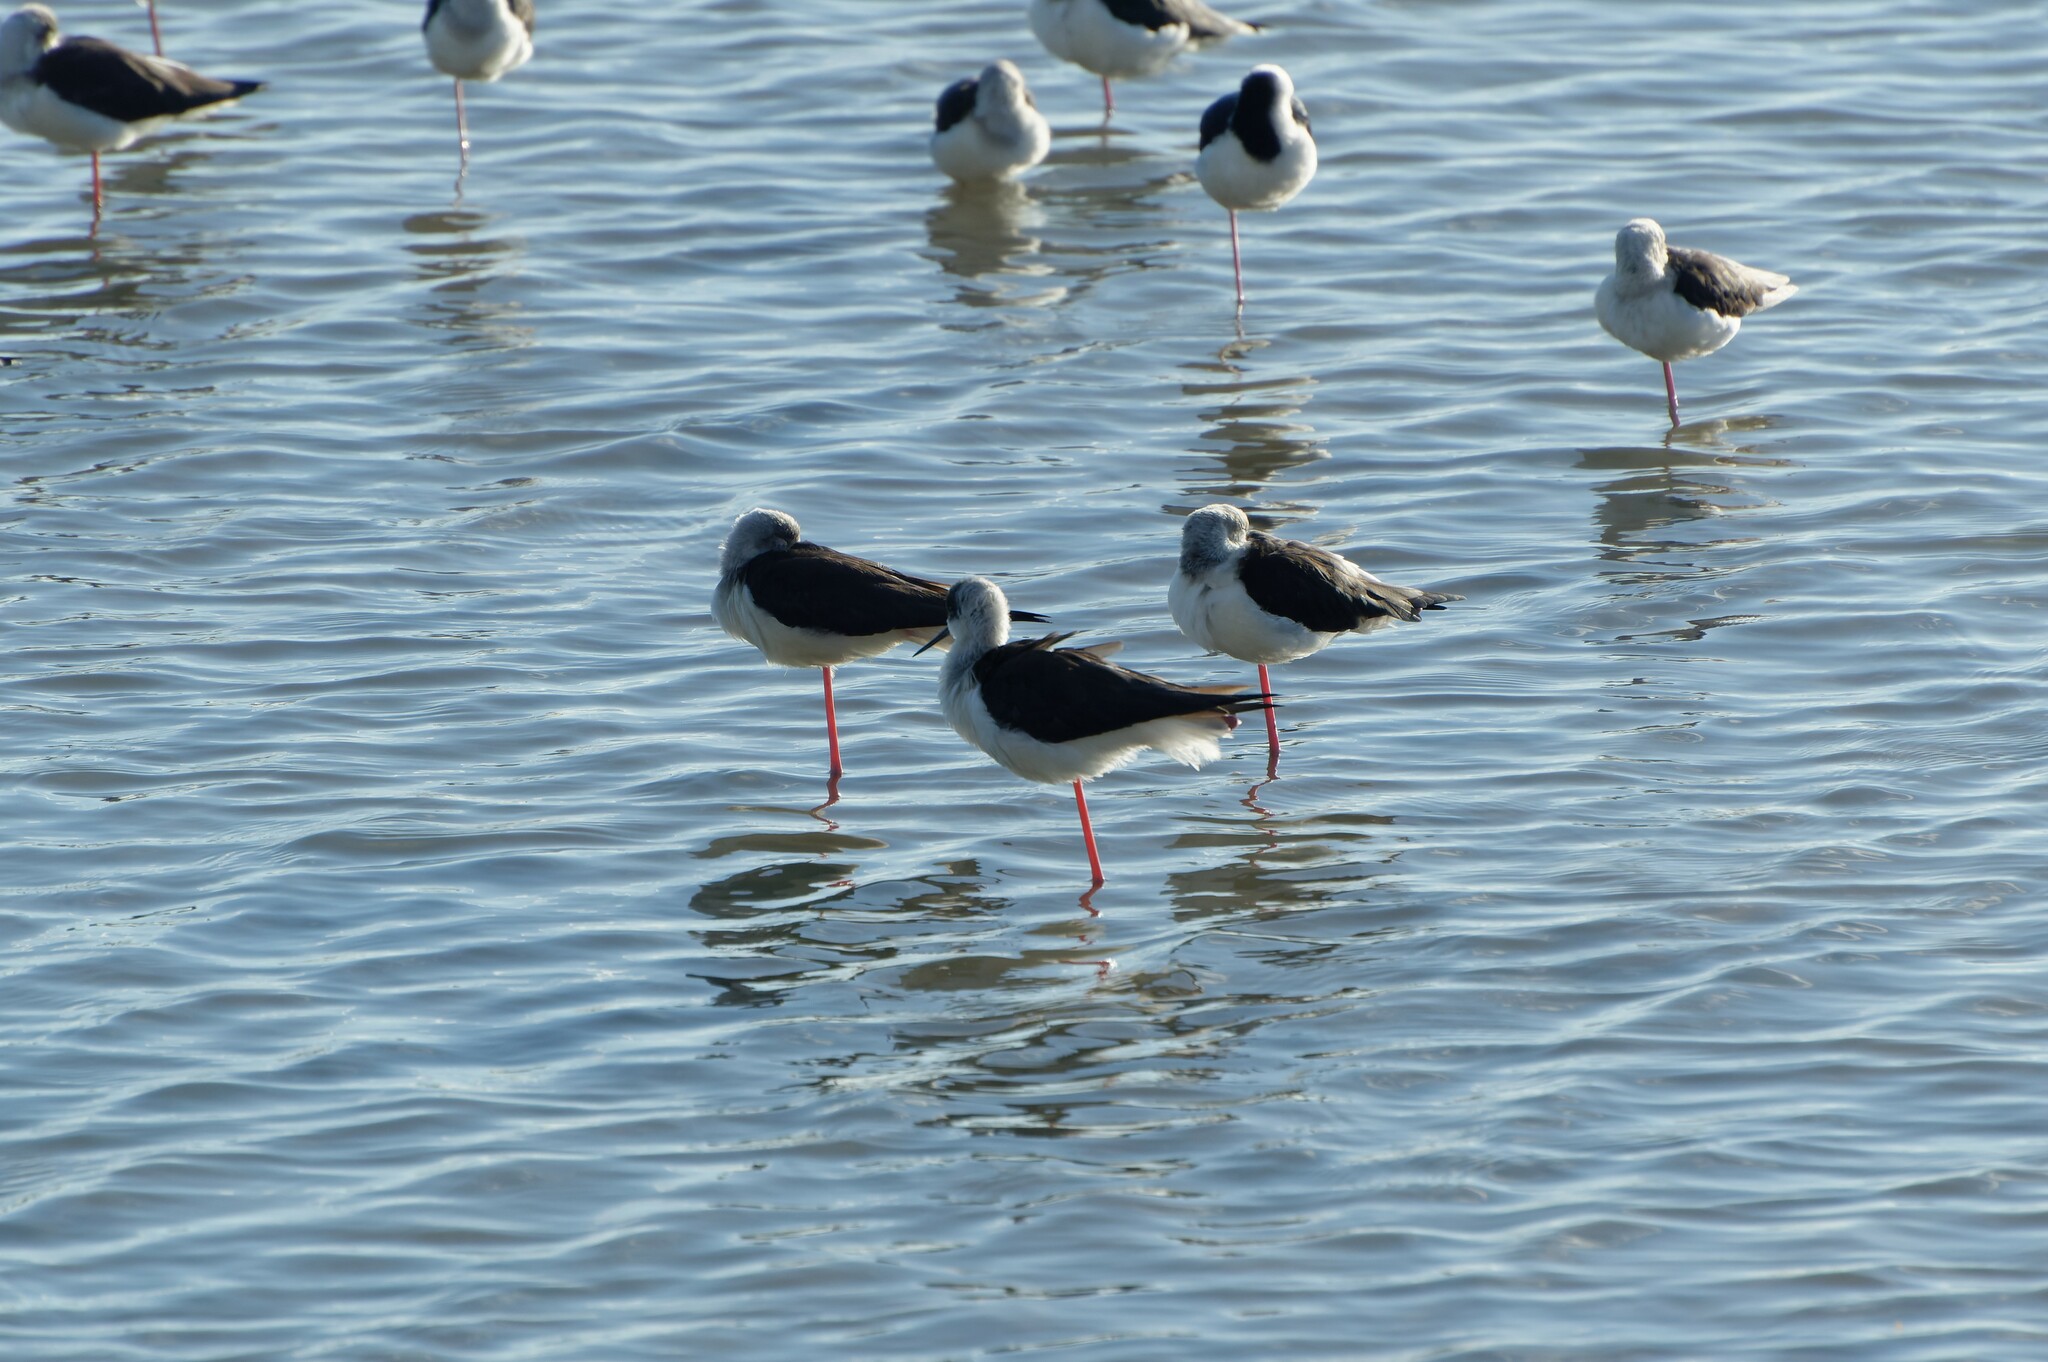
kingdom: Animalia
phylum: Chordata
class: Aves
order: Charadriiformes
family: Recurvirostridae
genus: Himantopus
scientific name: Himantopus leucocephalus
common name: White-headed stilt
